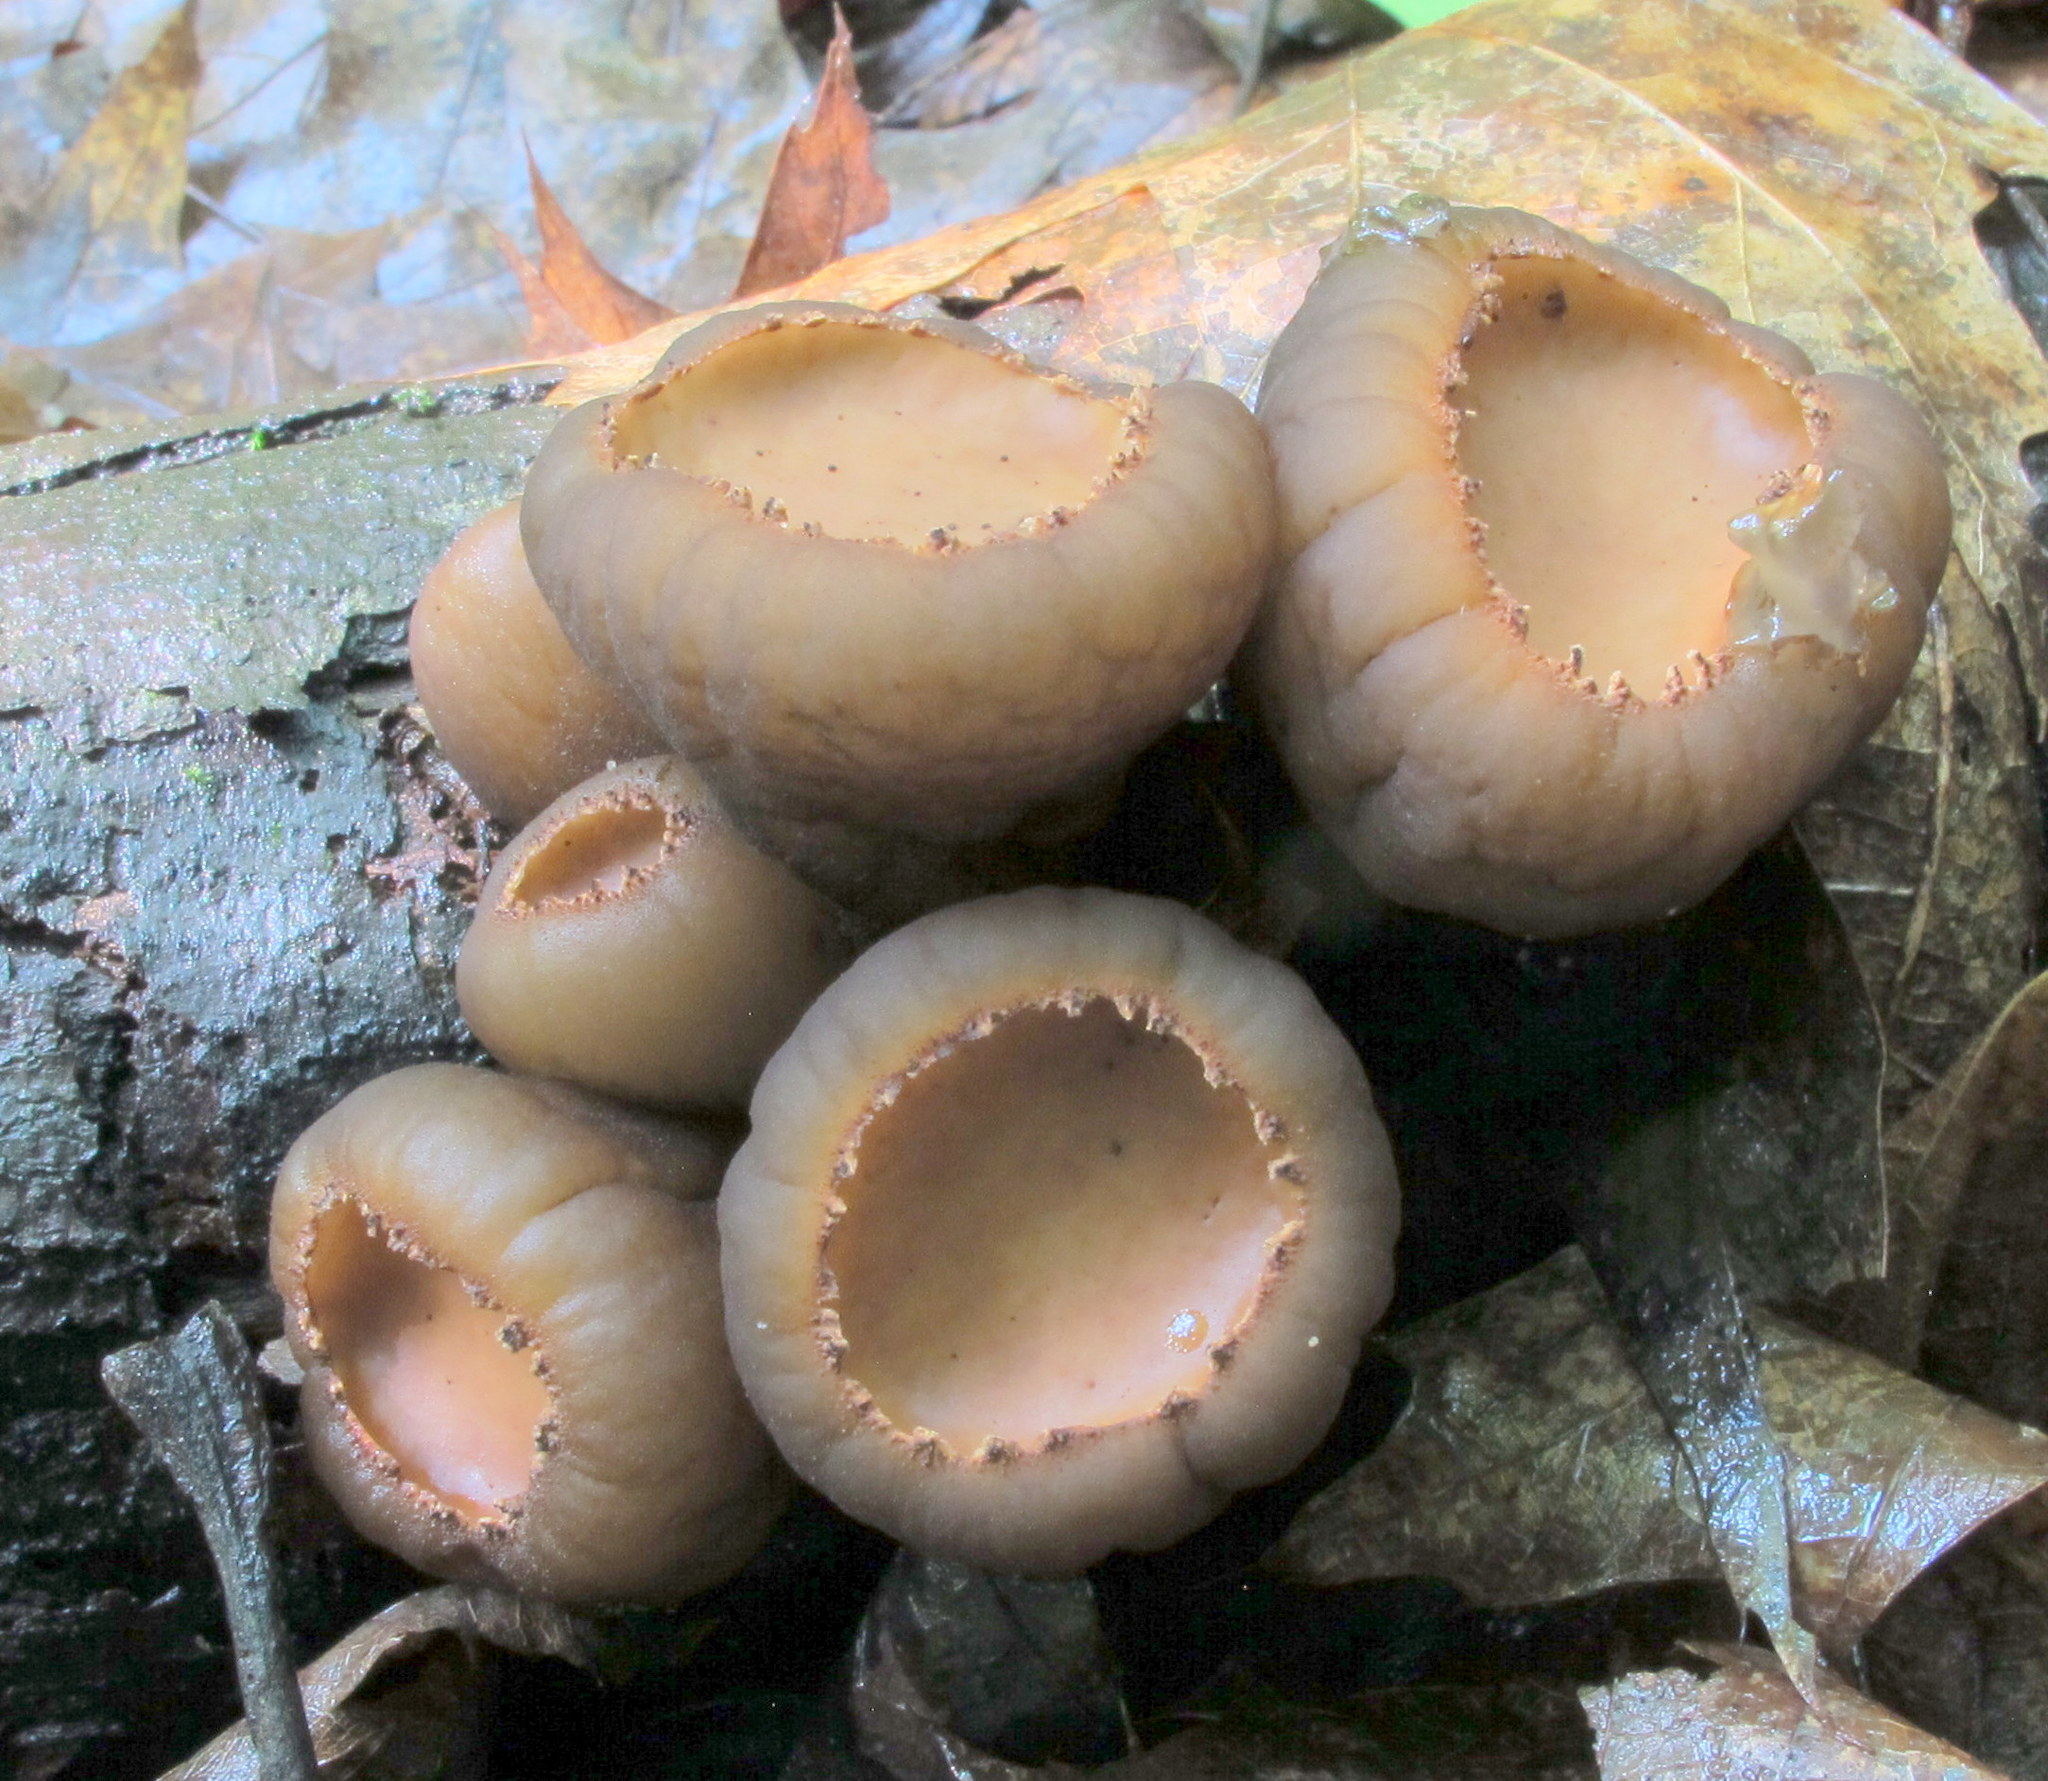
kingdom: Fungi
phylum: Ascomycota
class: Pezizomycetes
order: Pezizales
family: Sarcosomataceae
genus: Galiella
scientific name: Galiella rufa
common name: Hairy rubber cup
